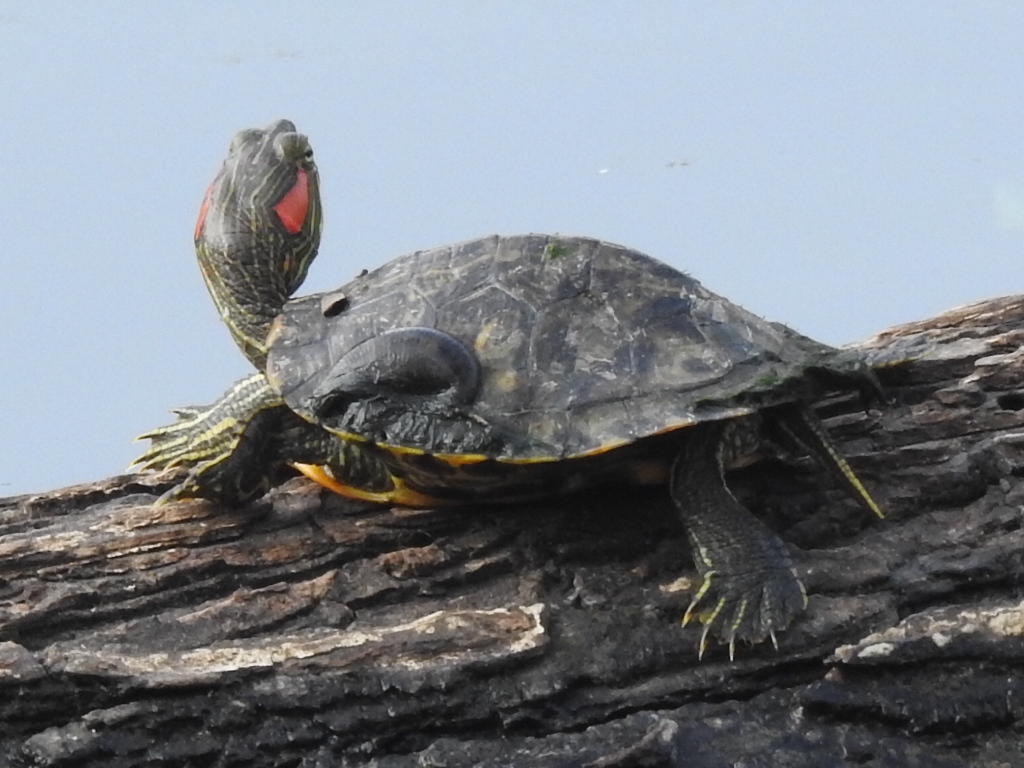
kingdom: Animalia
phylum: Chordata
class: Testudines
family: Emydidae
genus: Trachemys
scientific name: Trachemys scripta
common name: Slider
